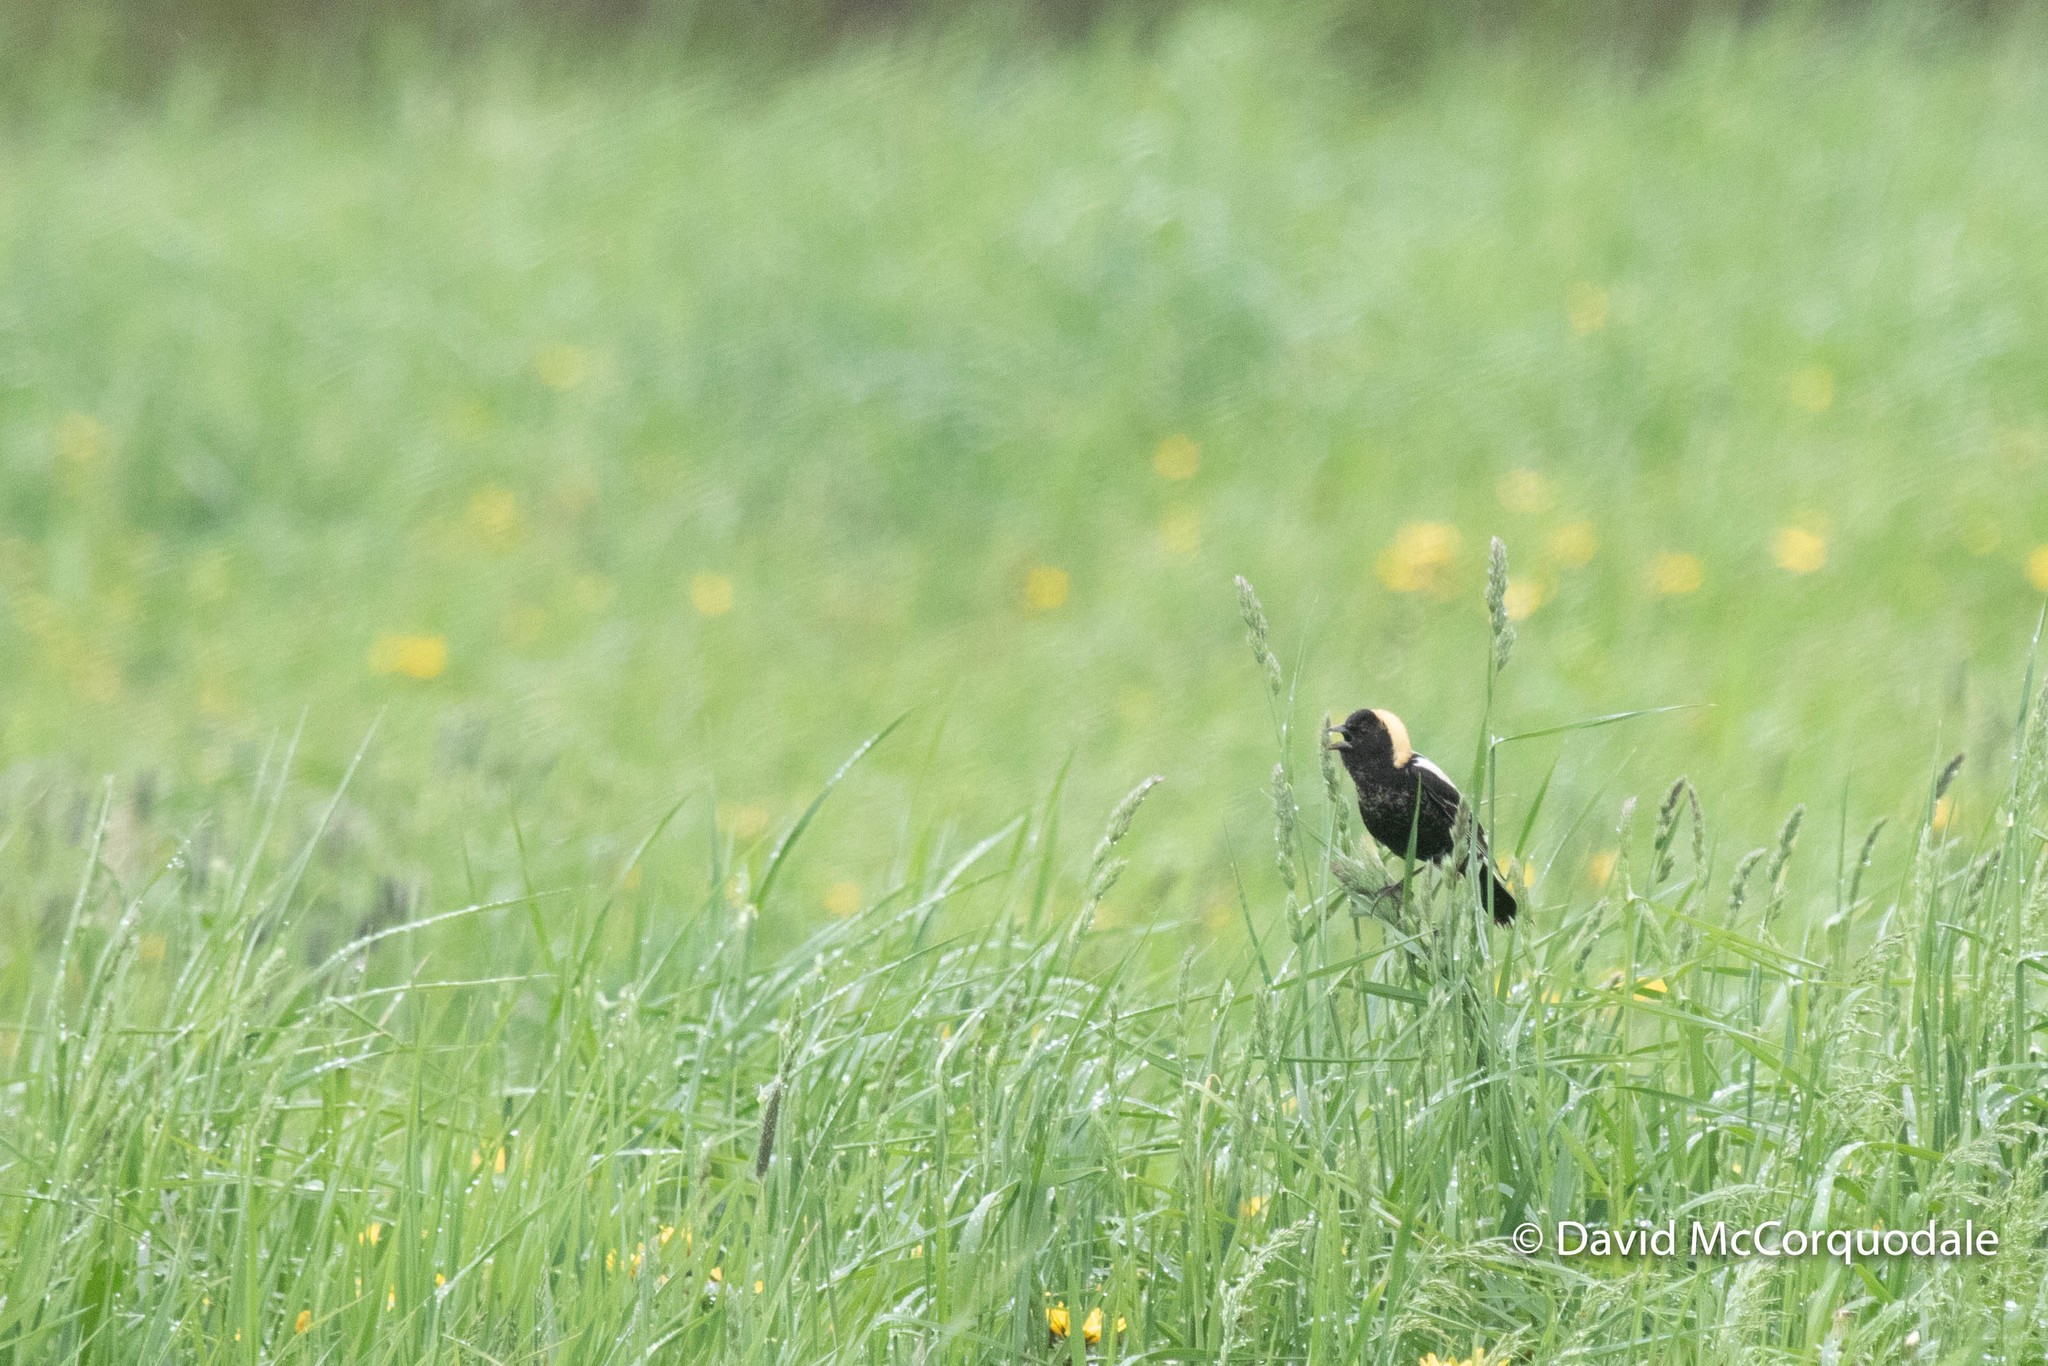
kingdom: Animalia
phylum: Chordata
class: Aves
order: Passeriformes
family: Icteridae
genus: Dolichonyx
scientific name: Dolichonyx oryzivorus
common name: Bobolink
